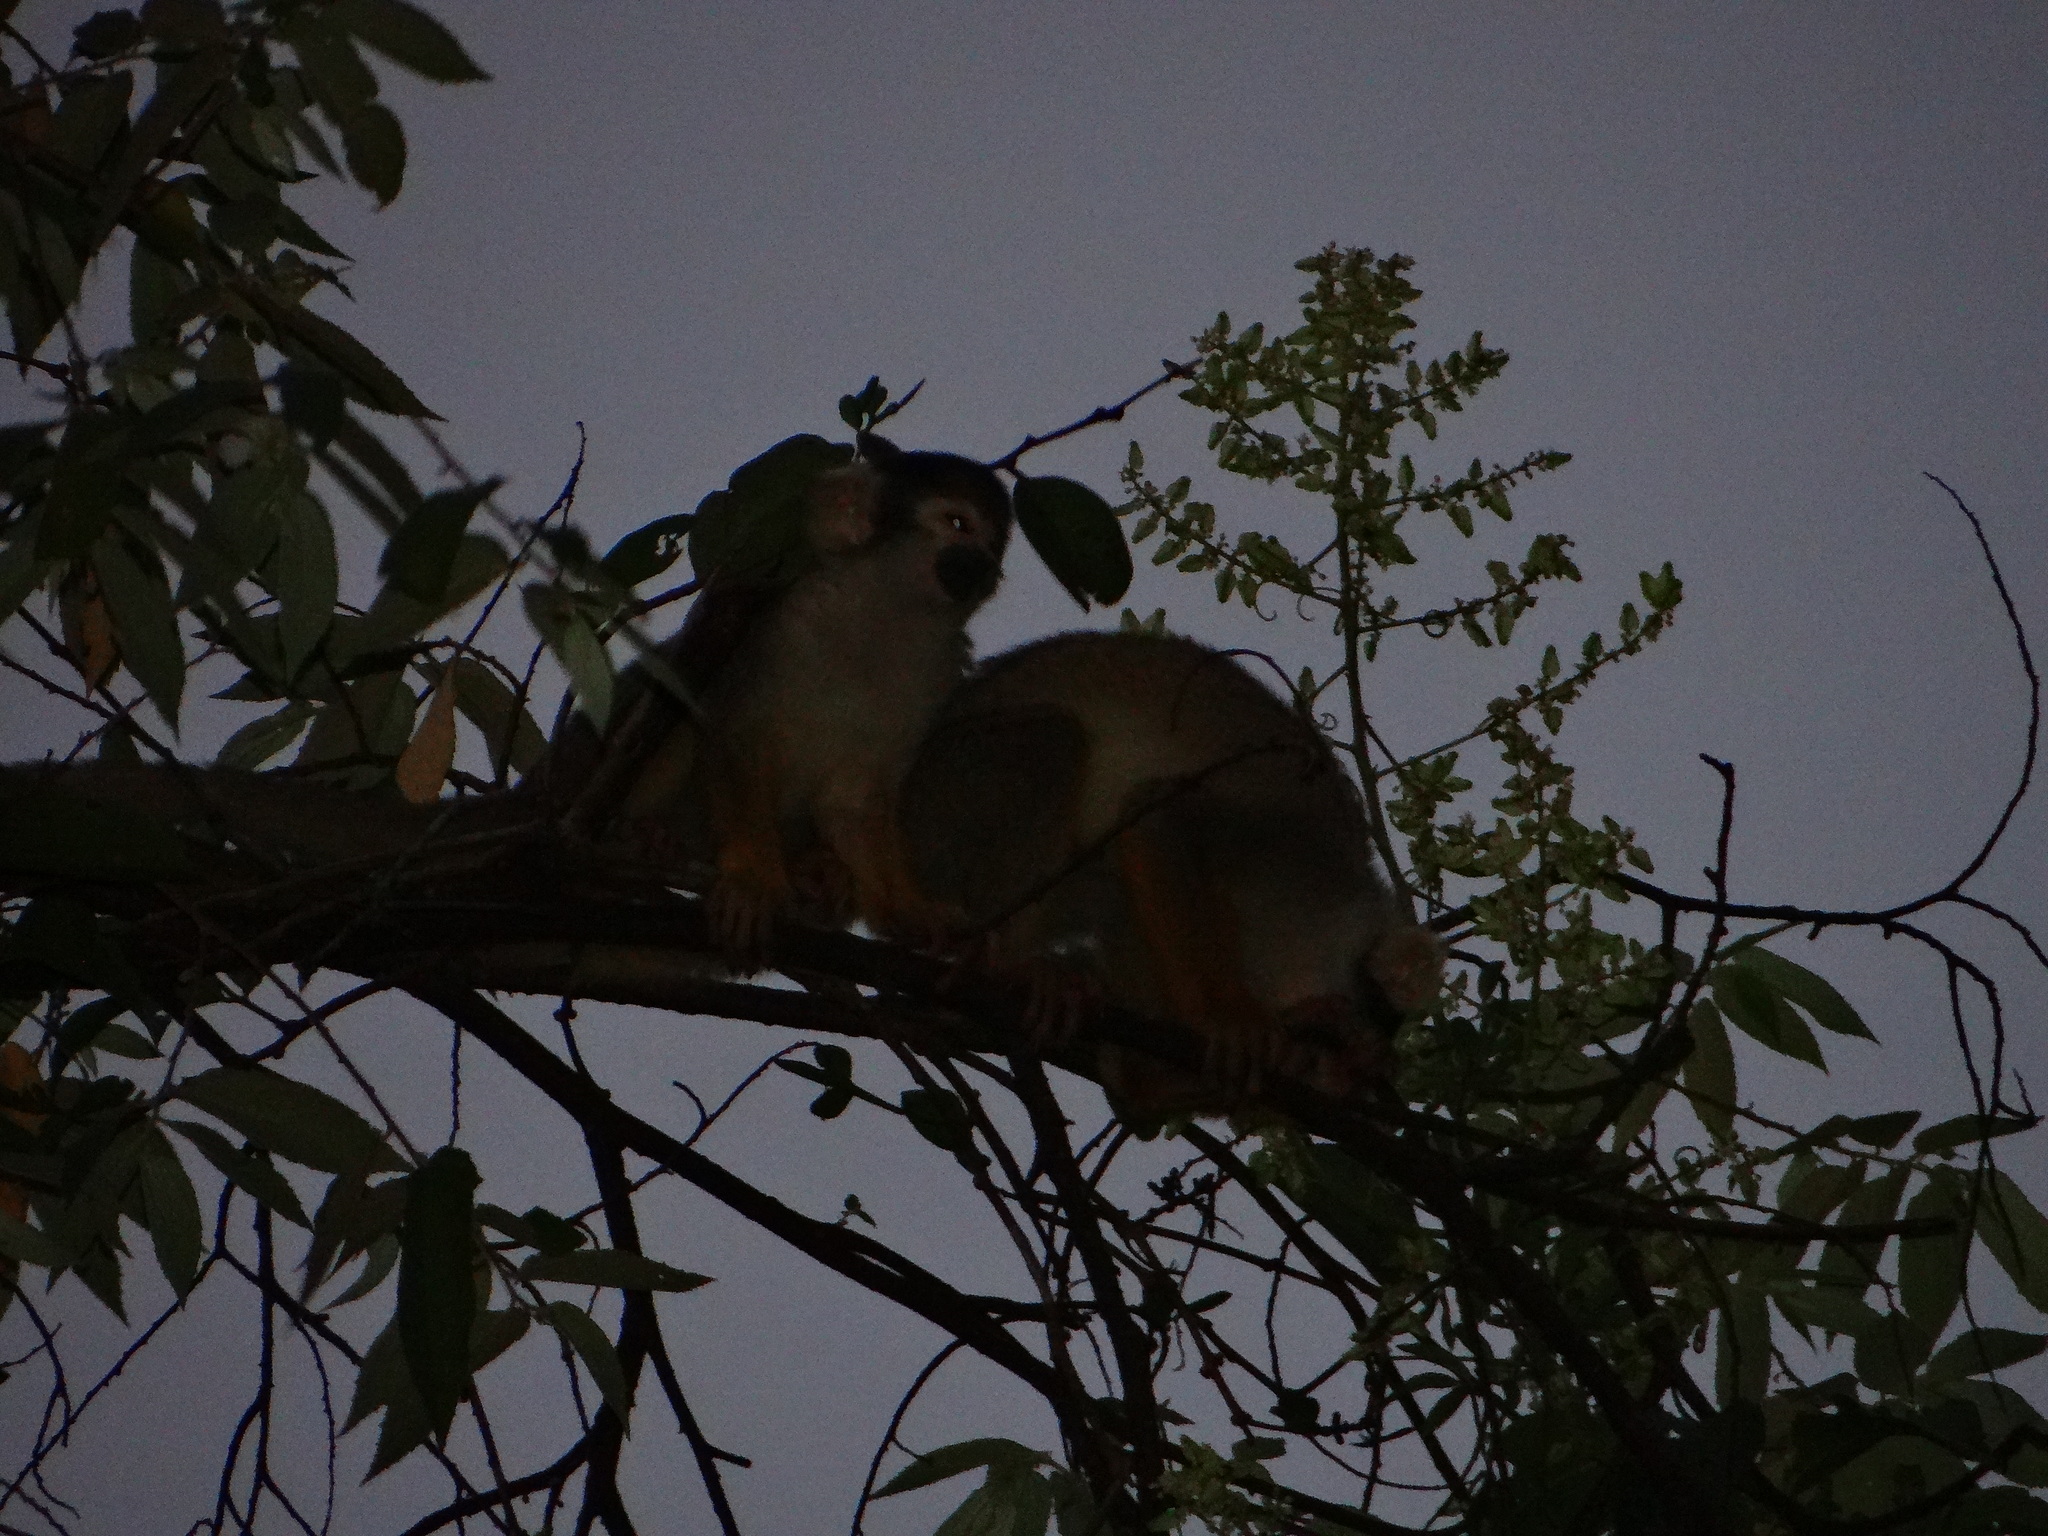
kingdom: Animalia
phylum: Chordata
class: Mammalia
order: Primates
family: Cebidae
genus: Saimiri
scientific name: Saimiri boliviensis
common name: Black-capped squirrel monkey
